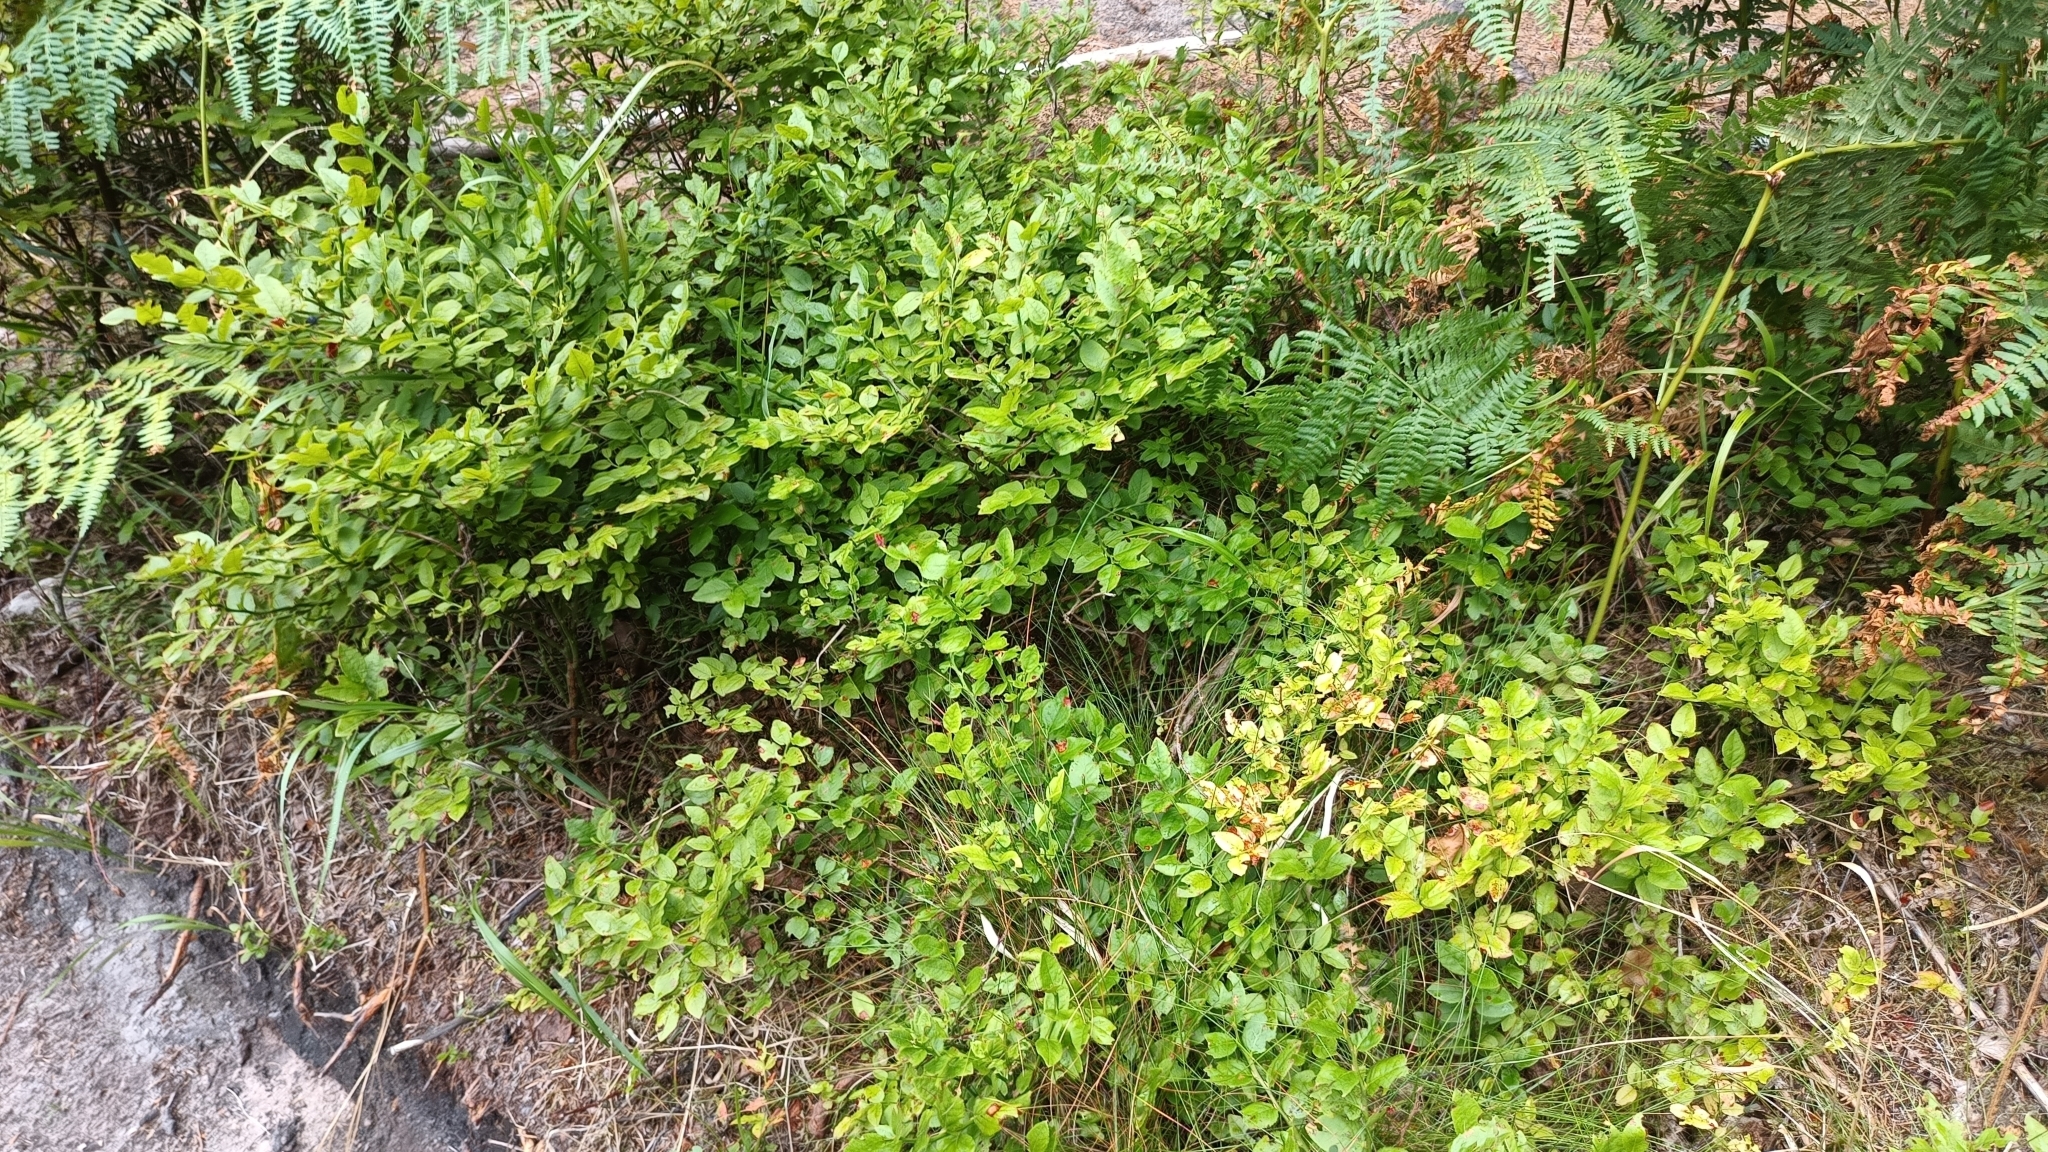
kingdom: Plantae
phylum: Tracheophyta
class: Magnoliopsida
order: Ericales
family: Ericaceae
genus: Vaccinium
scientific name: Vaccinium myrtillus
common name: Bilberry
